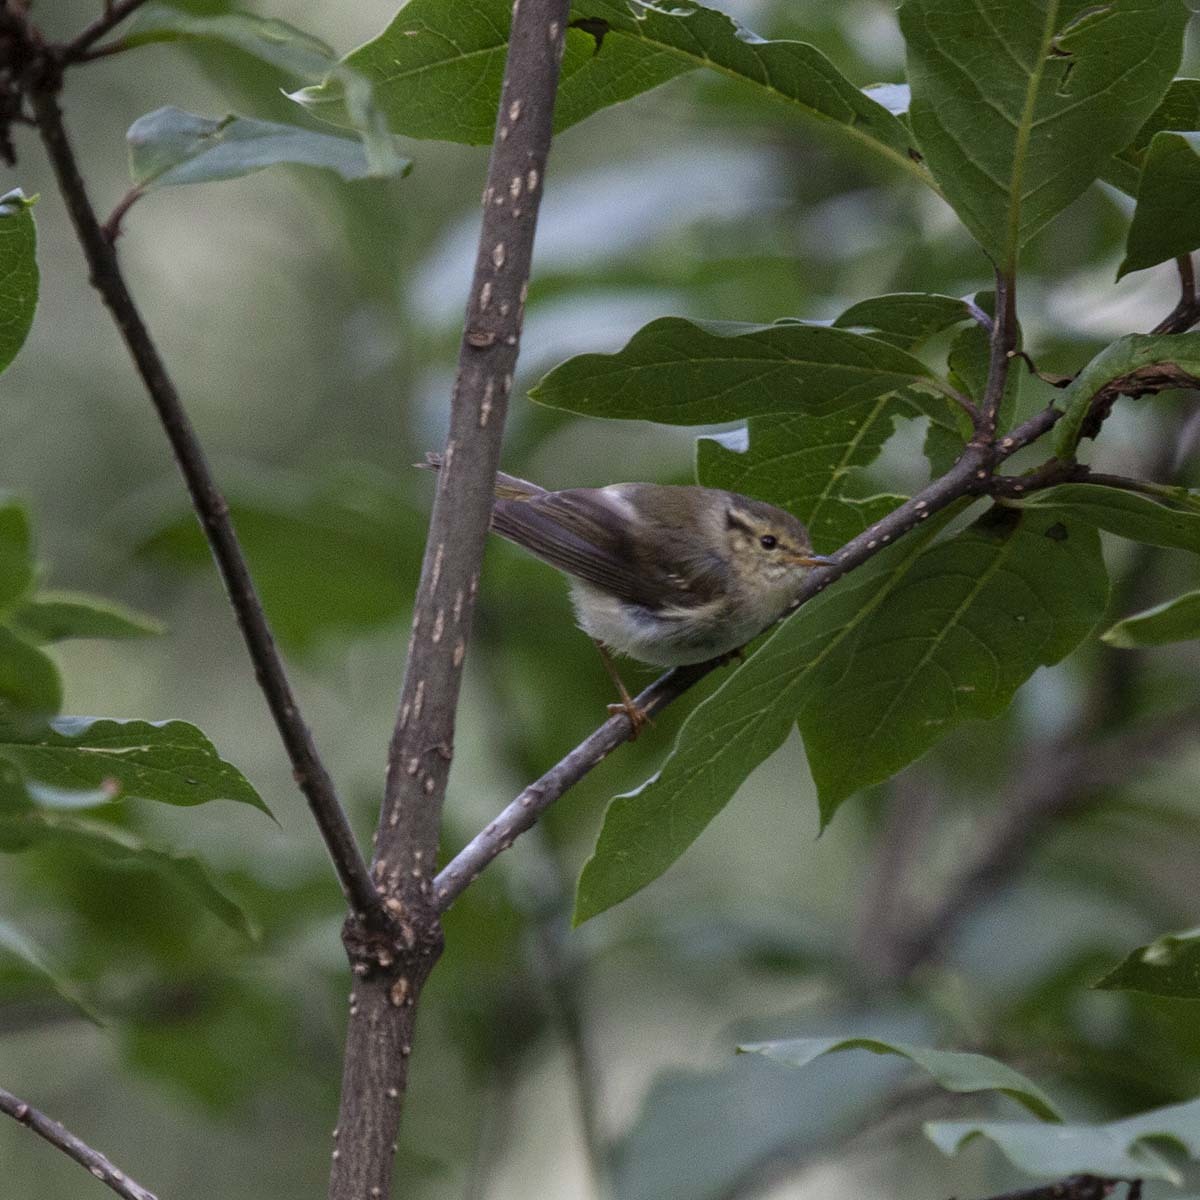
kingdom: Animalia
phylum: Chordata
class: Aves
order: Passeriformes
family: Phylloscopidae
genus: Phylloscopus
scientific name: Phylloscopus chloronotus
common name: Lemon-rumped warbler
